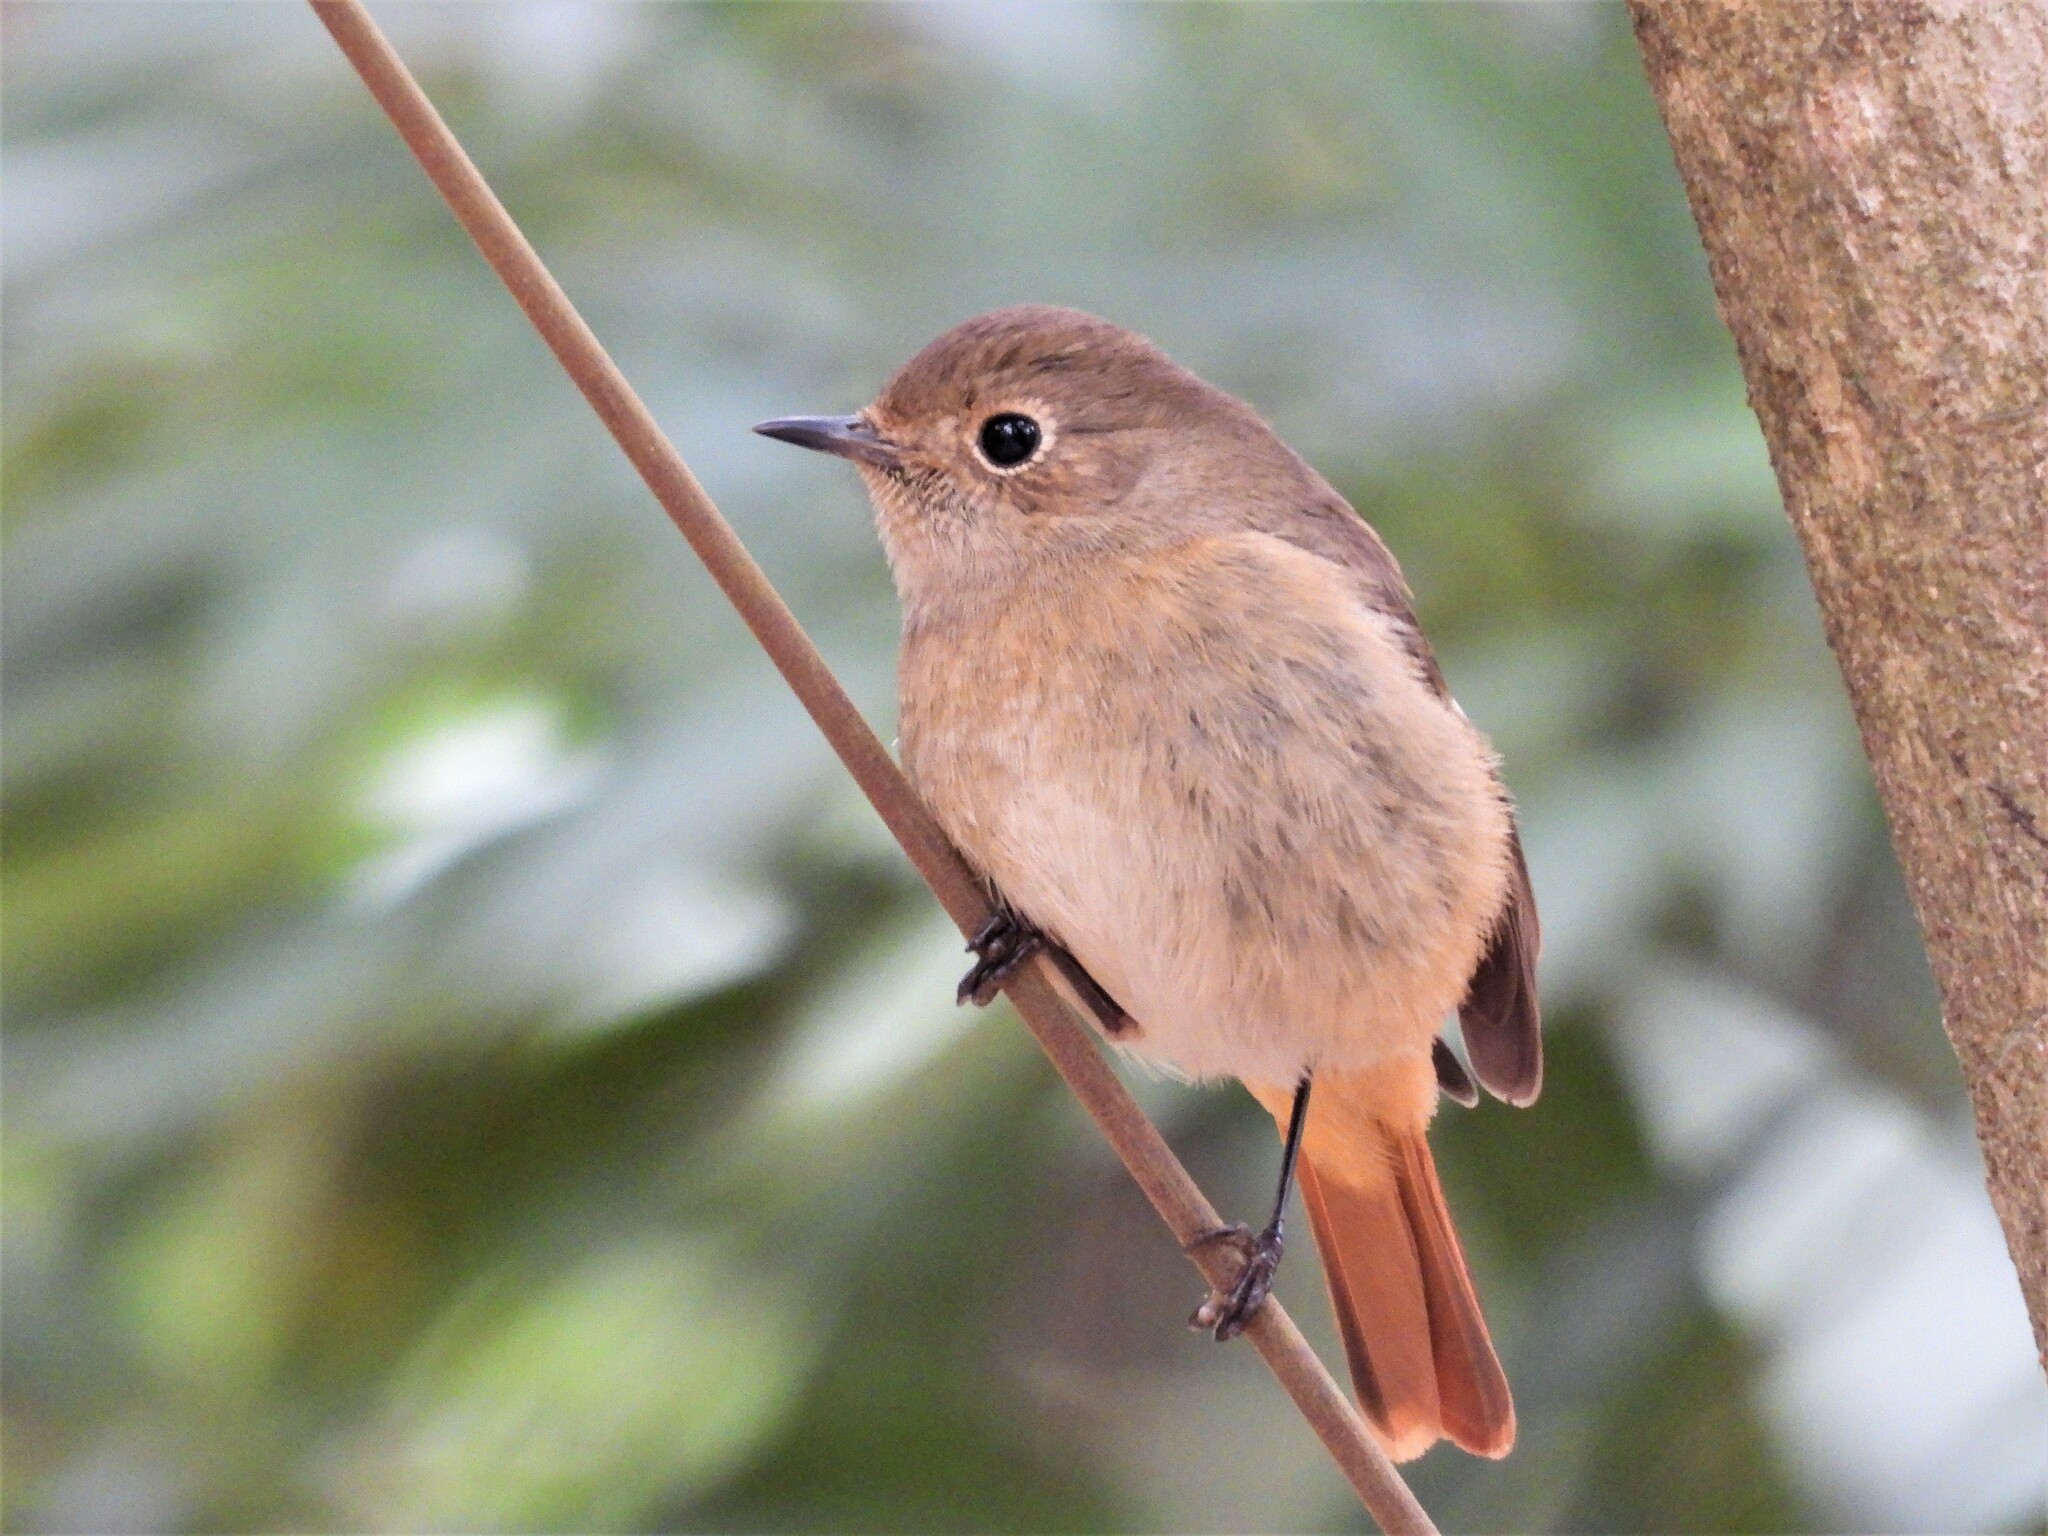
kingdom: Animalia
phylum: Chordata
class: Aves
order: Passeriformes
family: Muscicapidae
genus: Phoenicurus
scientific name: Phoenicurus auroreus
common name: Daurian redstart
